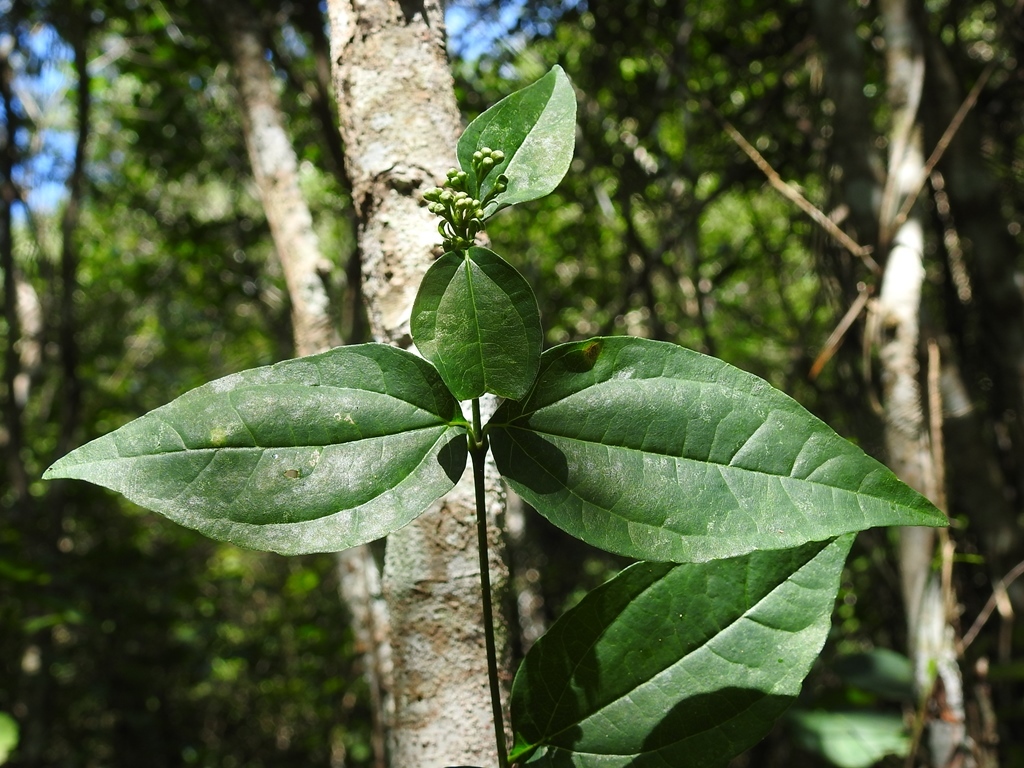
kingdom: Plantae
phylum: Tracheophyta
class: Magnoliopsida
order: Asterales
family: Asteraceae
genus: Salmea
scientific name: Salmea scandens
